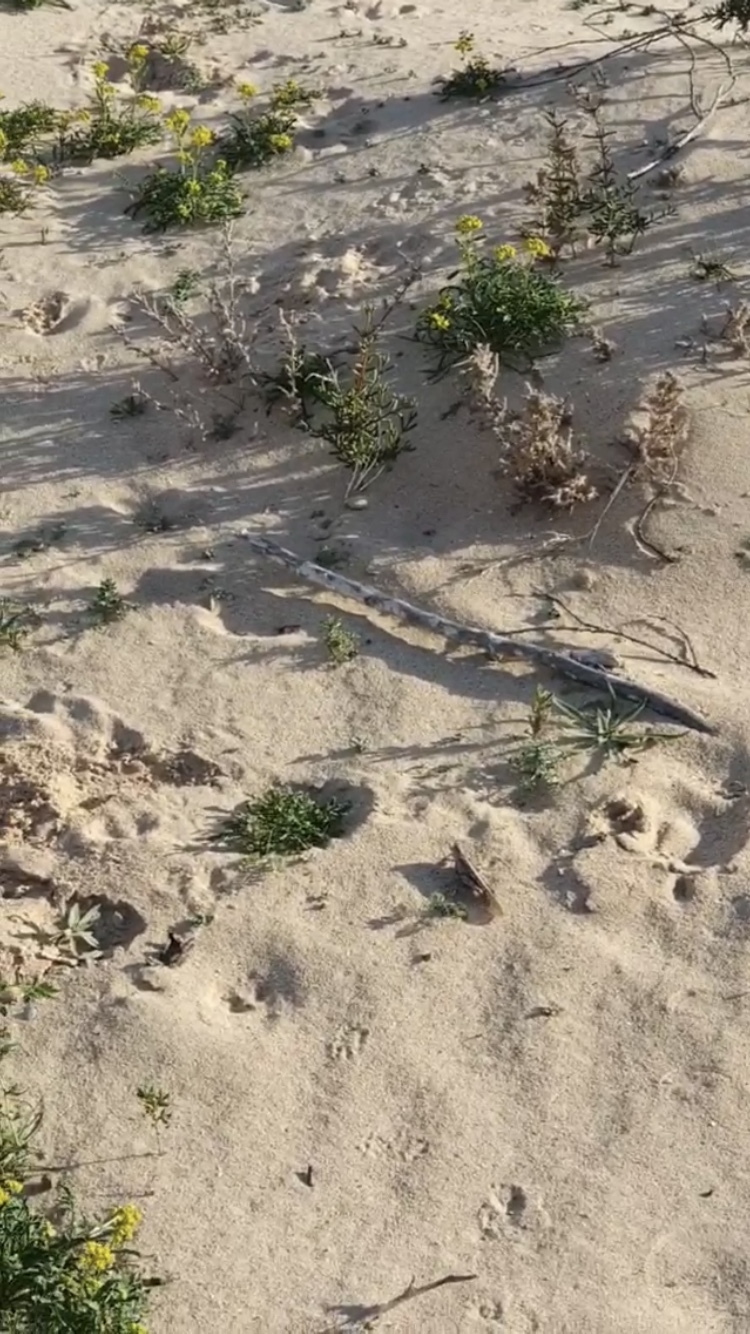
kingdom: Animalia
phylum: Arthropoda
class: Insecta
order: Orthoptera
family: Acrididae
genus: Schistocerca
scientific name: Schistocerca gregaria
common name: Desert locust
